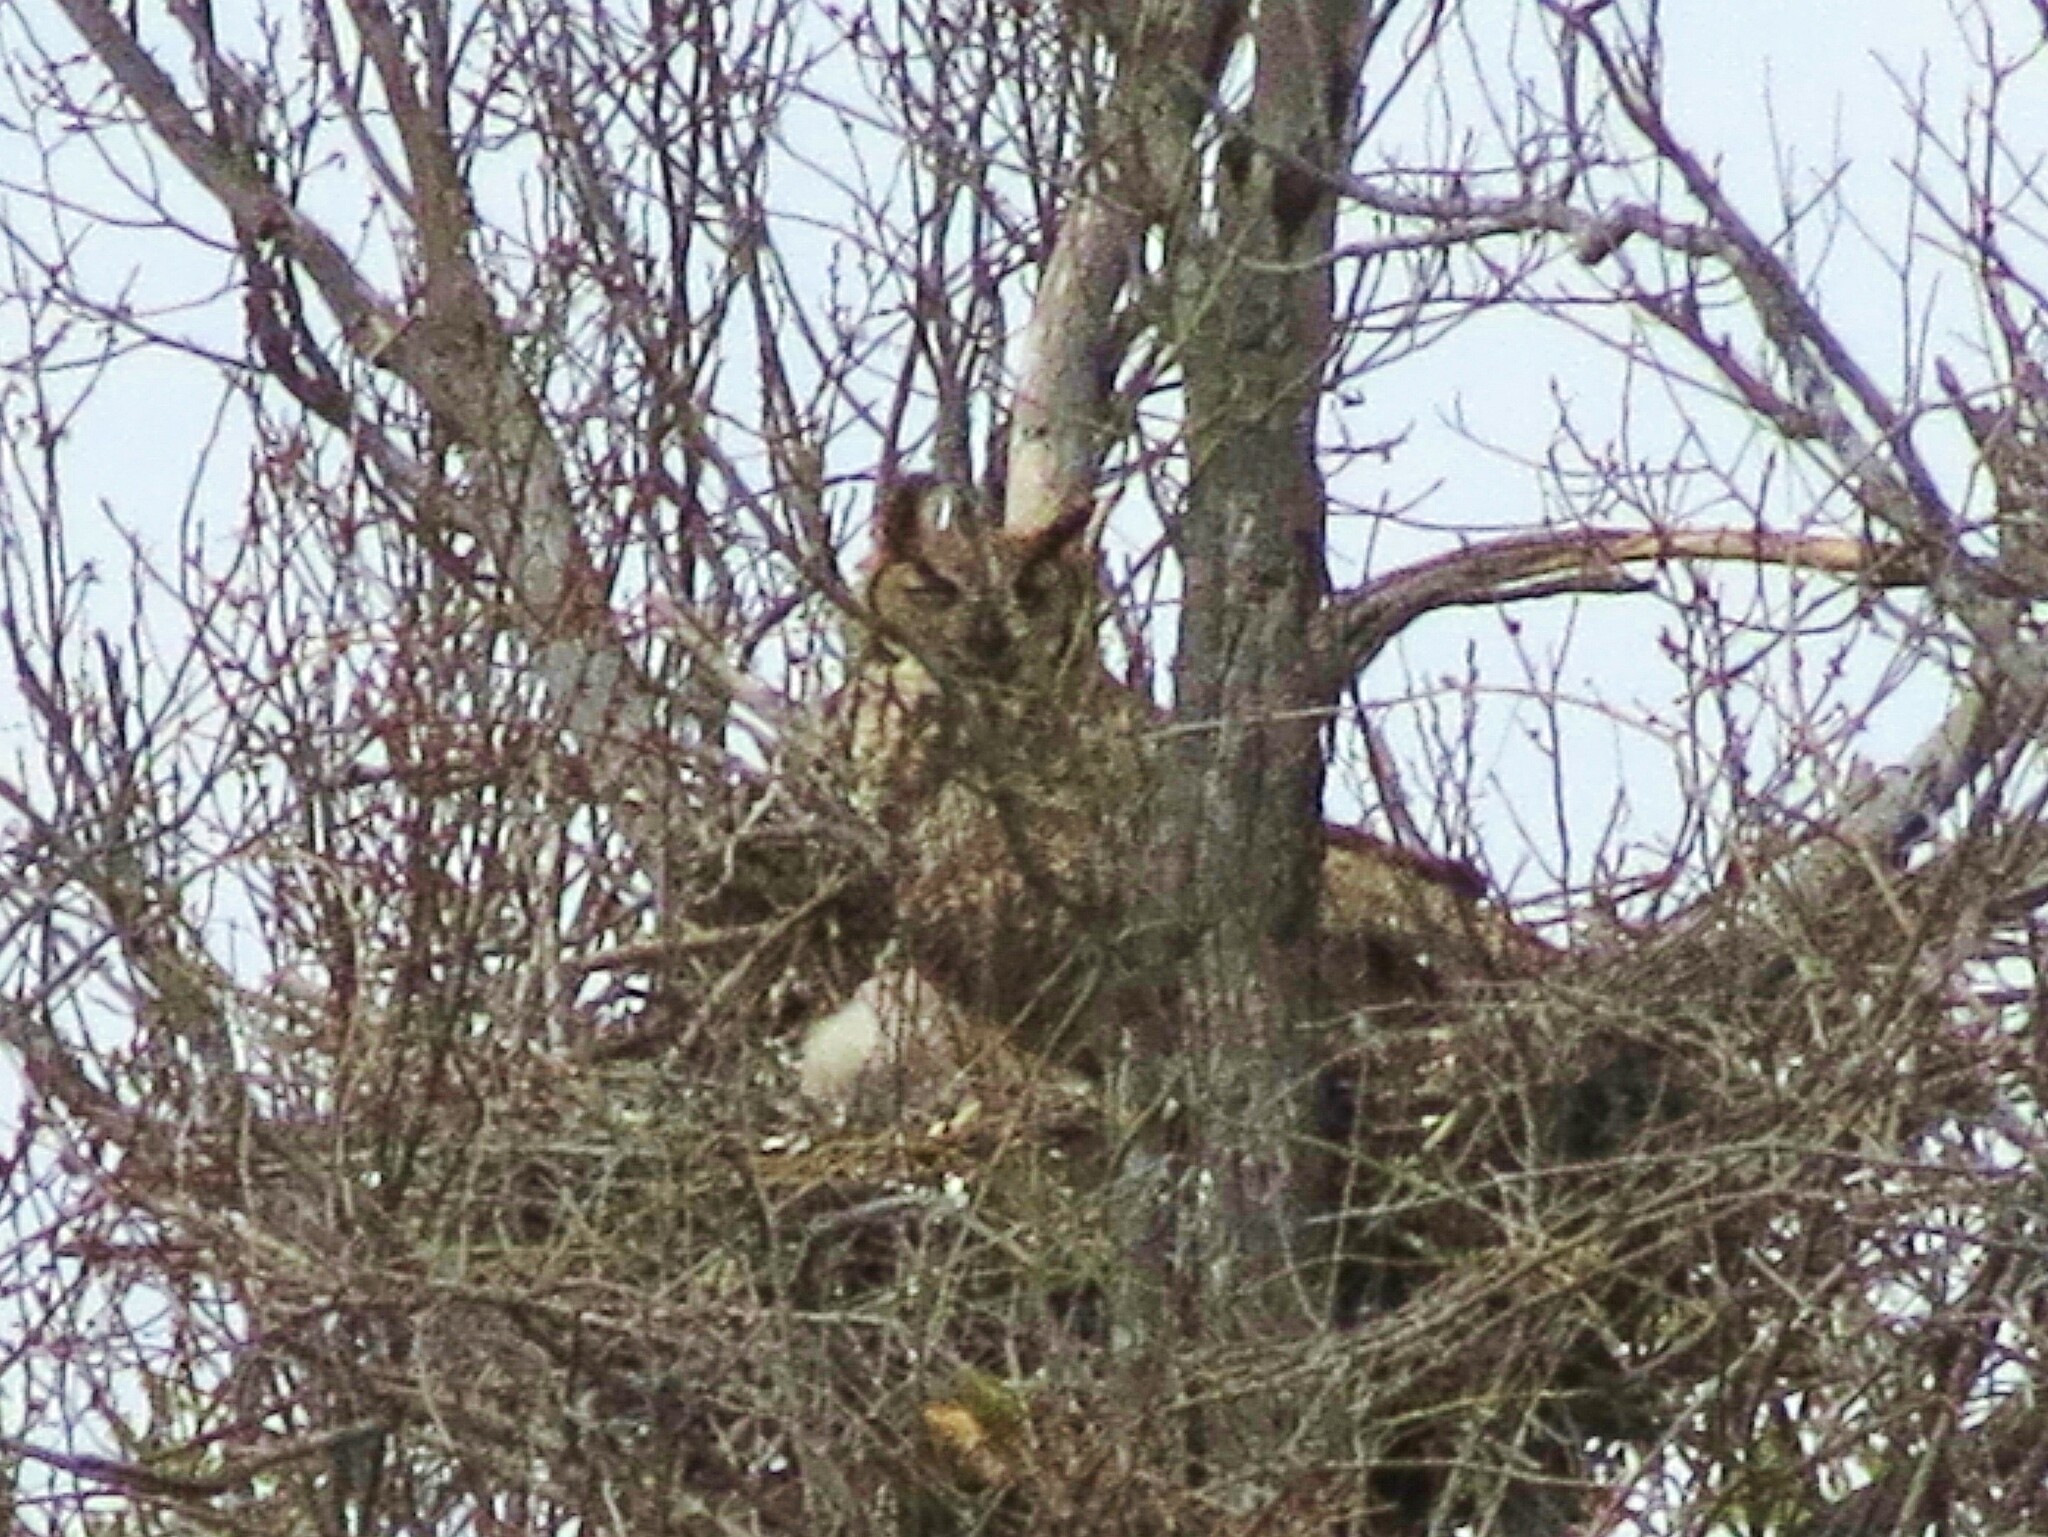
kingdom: Animalia
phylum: Chordata
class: Aves
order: Strigiformes
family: Strigidae
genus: Bubo
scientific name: Bubo virginianus
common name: Great horned owl
